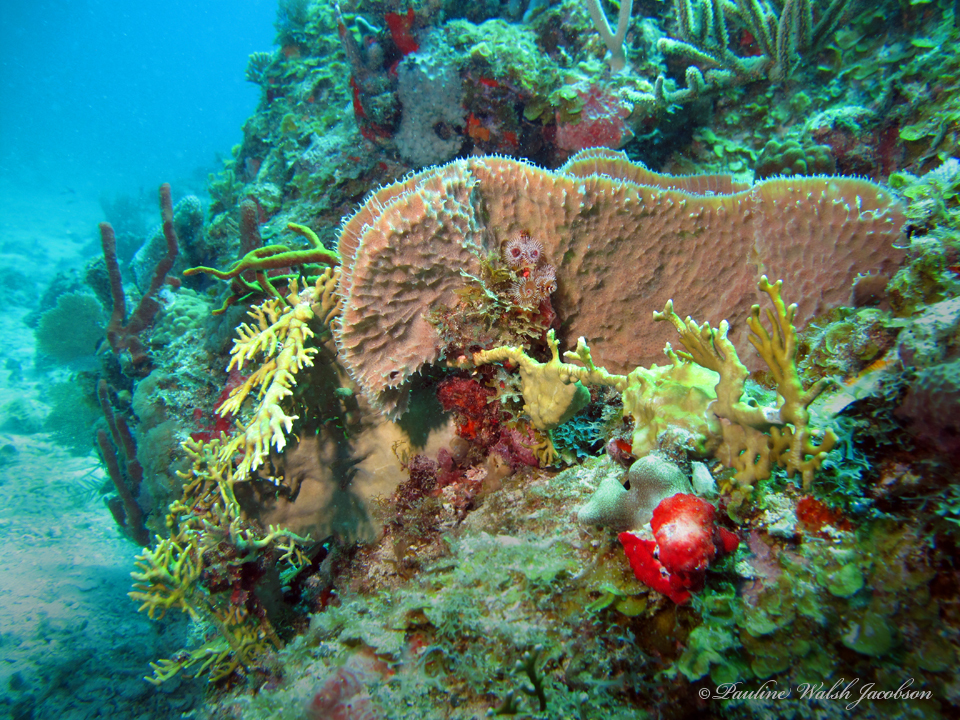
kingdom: Animalia
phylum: Porifera
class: Demospongiae
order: Haplosclerida
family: Callyspongiidae
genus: Callyspongia
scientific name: Callyspongia aculeata
